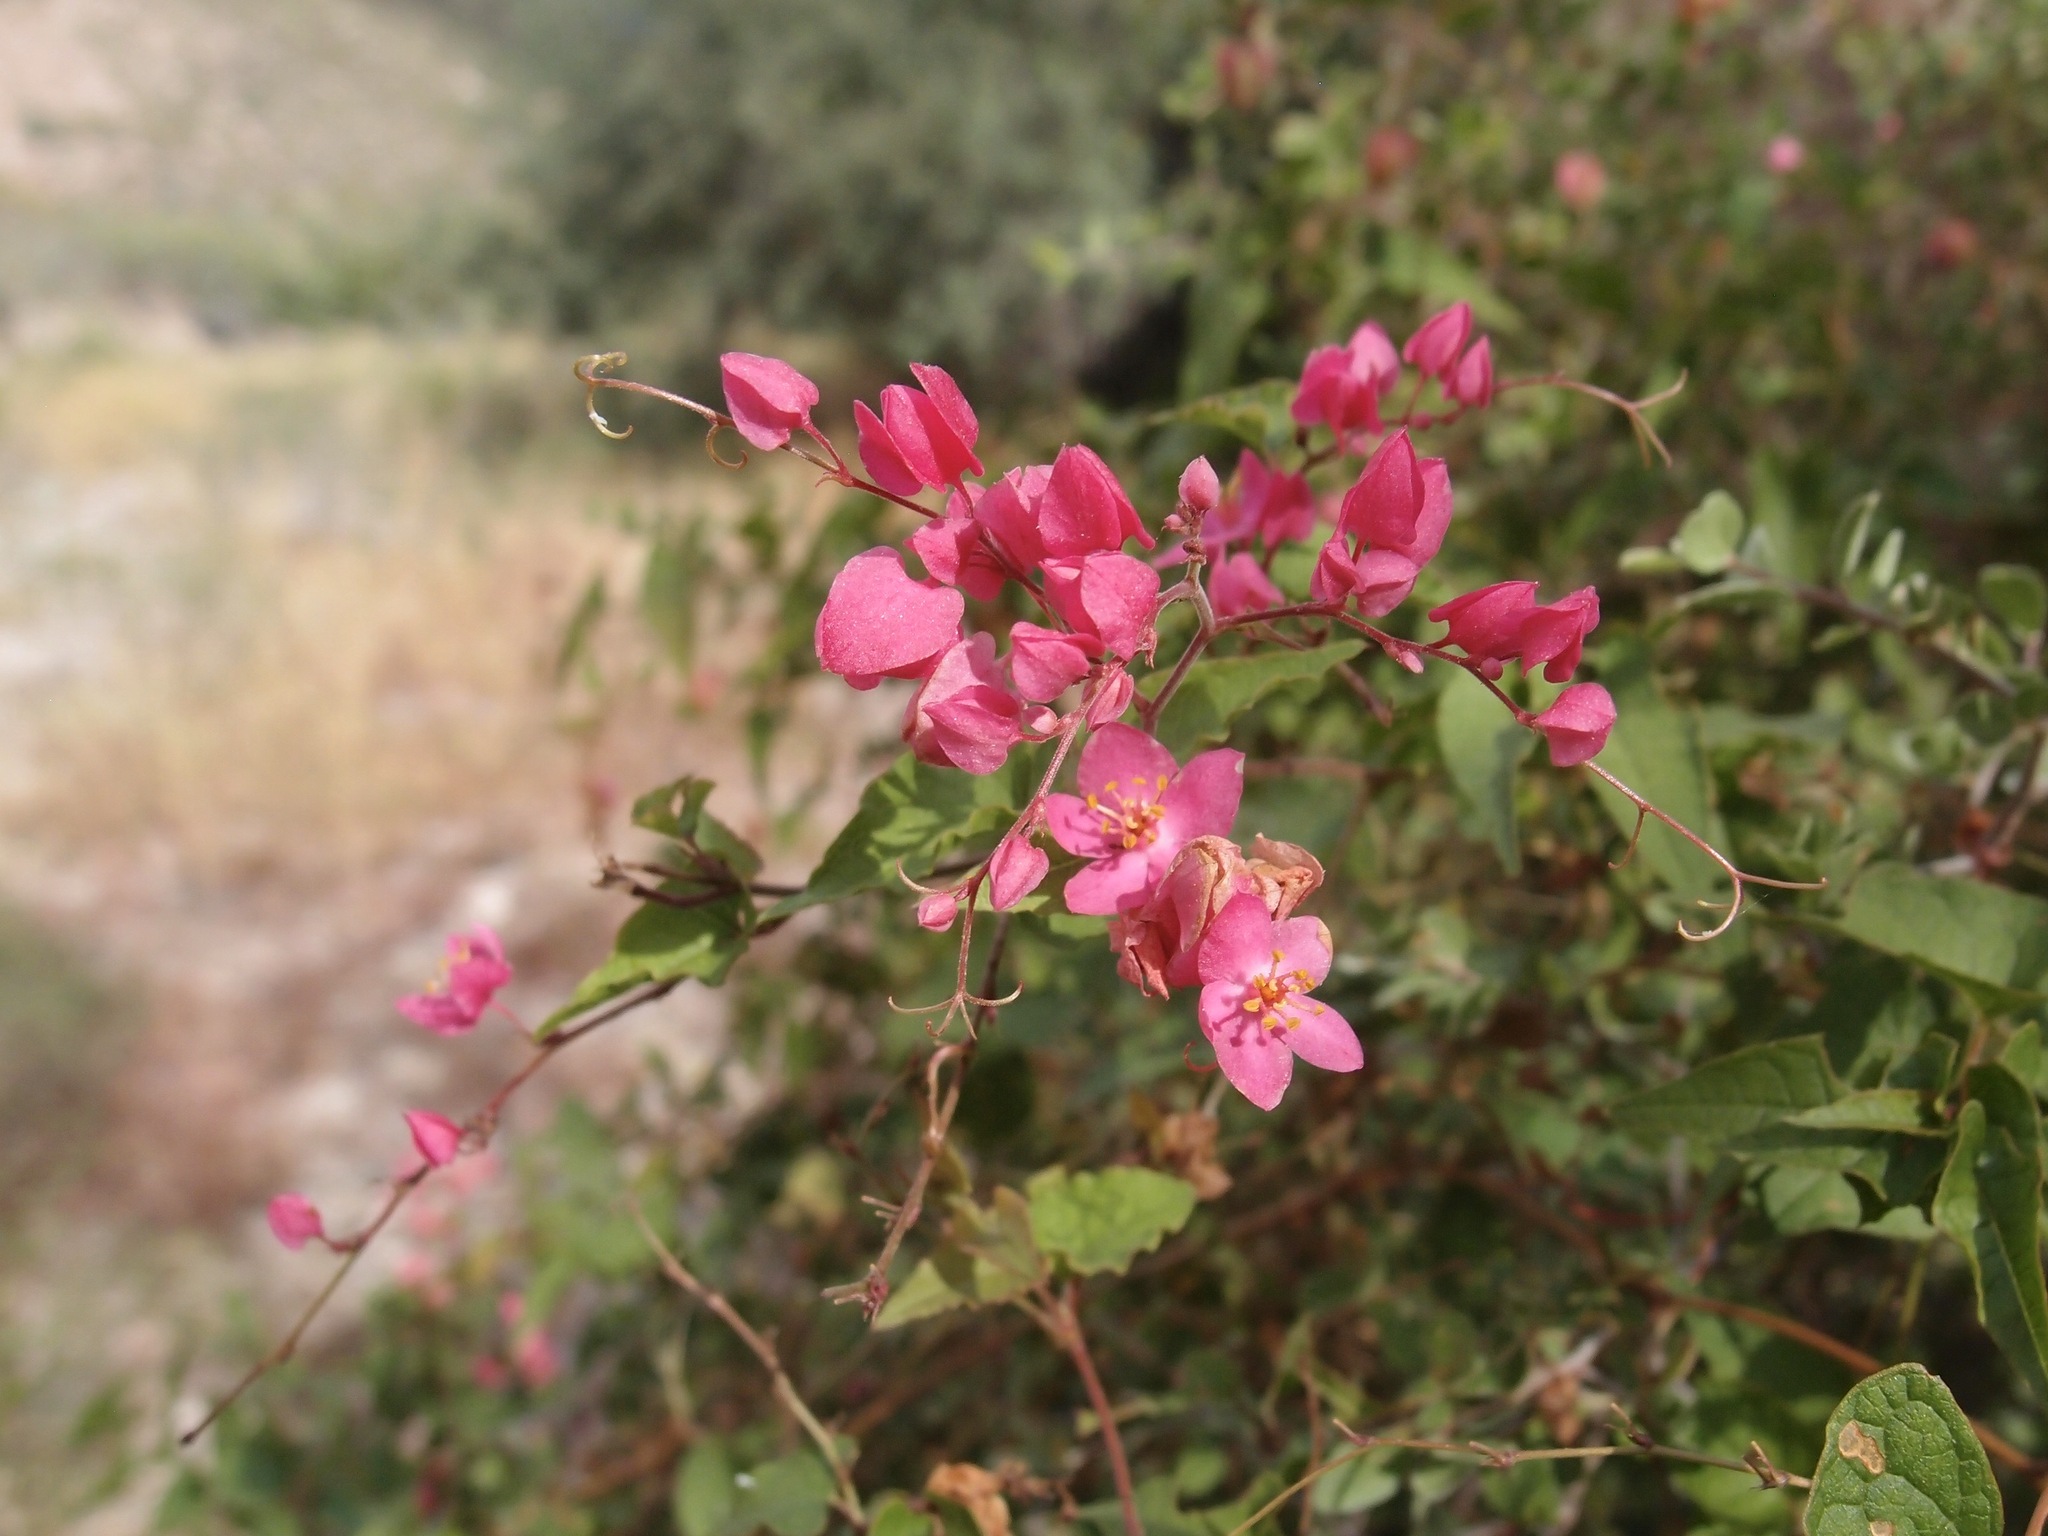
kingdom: Plantae
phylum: Tracheophyta
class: Magnoliopsida
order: Caryophyllales
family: Polygonaceae
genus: Antigonon
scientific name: Antigonon leptopus
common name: Coral vine
